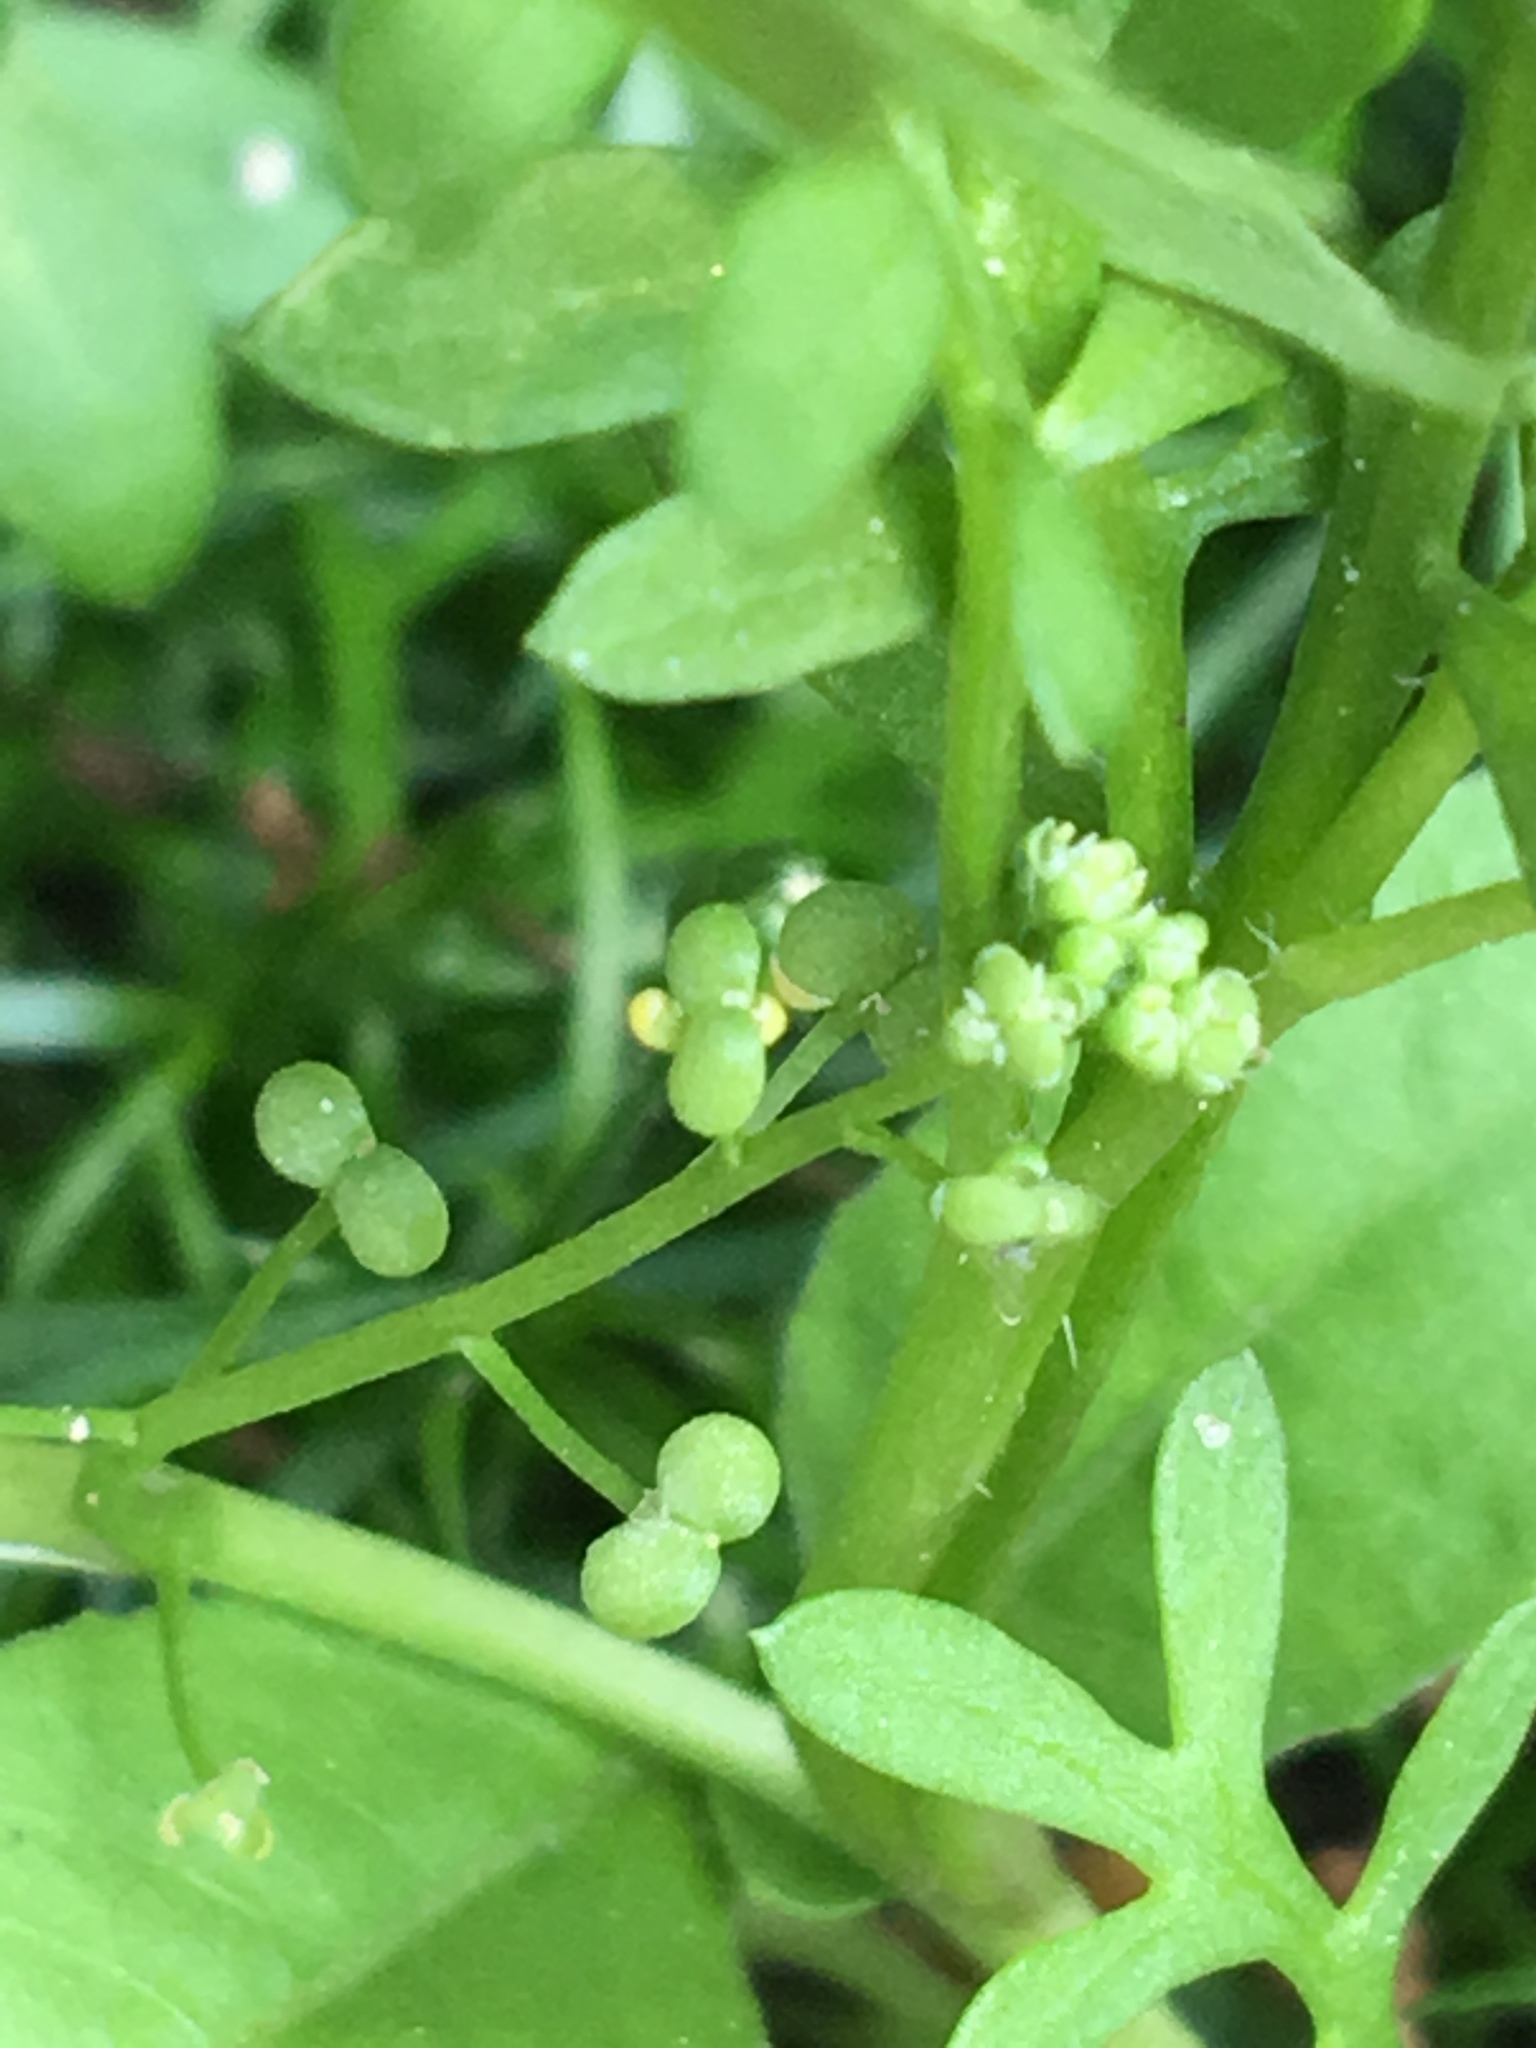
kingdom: Plantae
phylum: Tracheophyta
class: Magnoliopsida
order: Brassicales
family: Brassicaceae
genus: Lepidium
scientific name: Lepidium didymum
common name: Lesser swinecress
